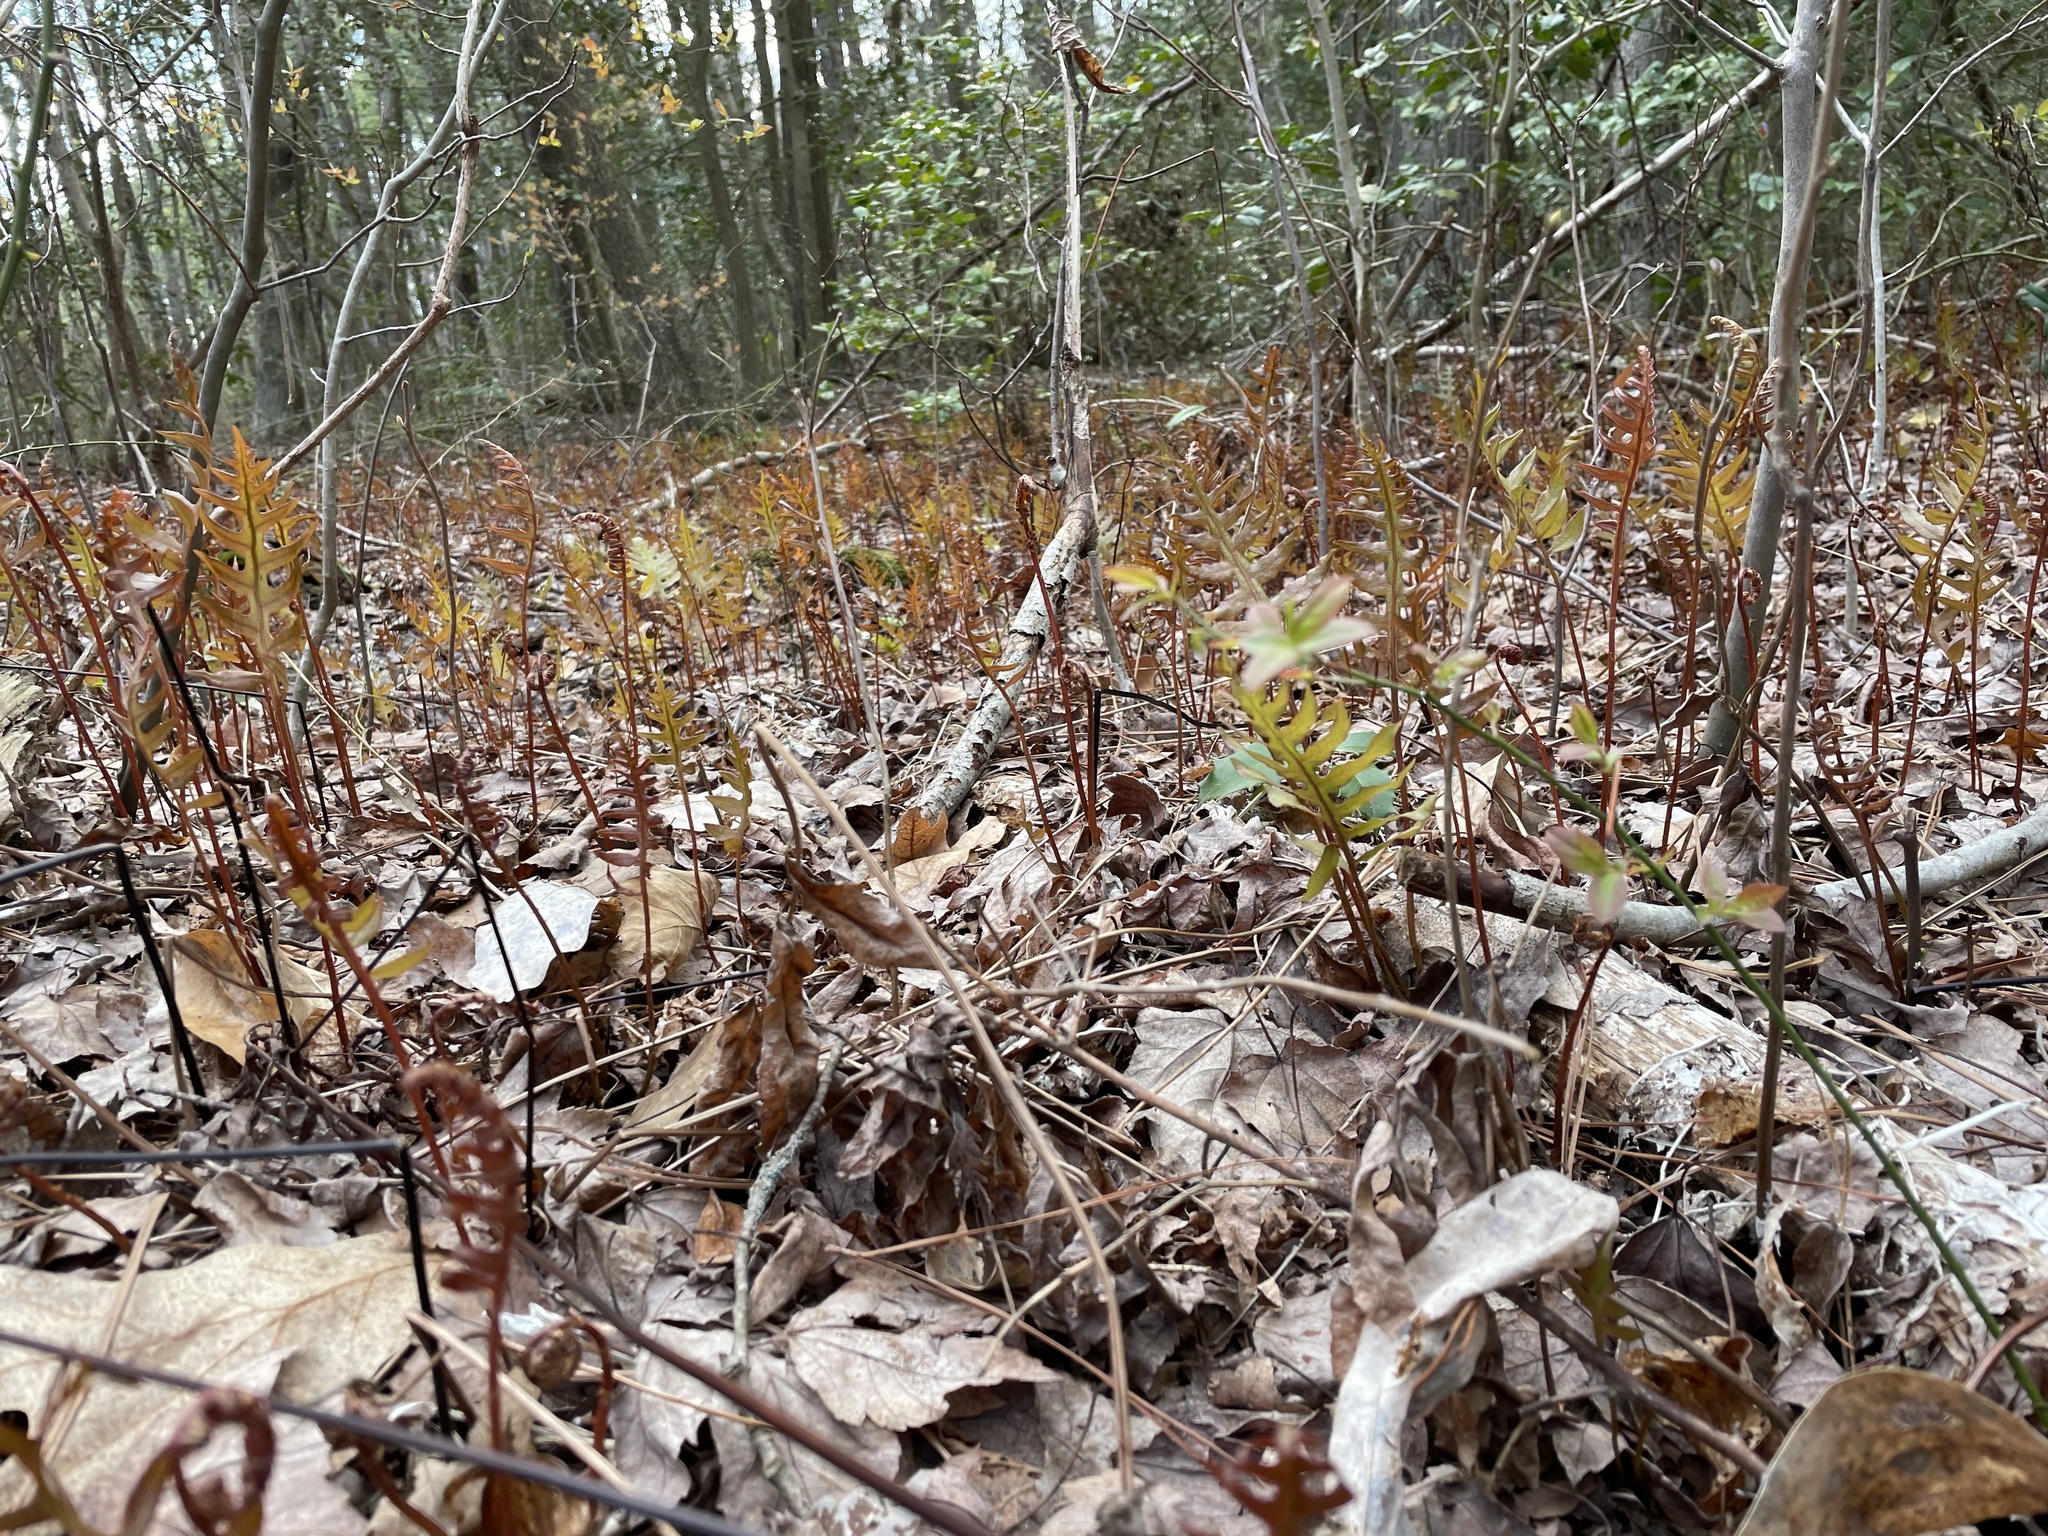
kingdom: Plantae
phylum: Tracheophyta
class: Polypodiopsida
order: Polypodiales
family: Blechnaceae
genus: Lorinseria
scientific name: Lorinseria areolata
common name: Dwarf chain fern
